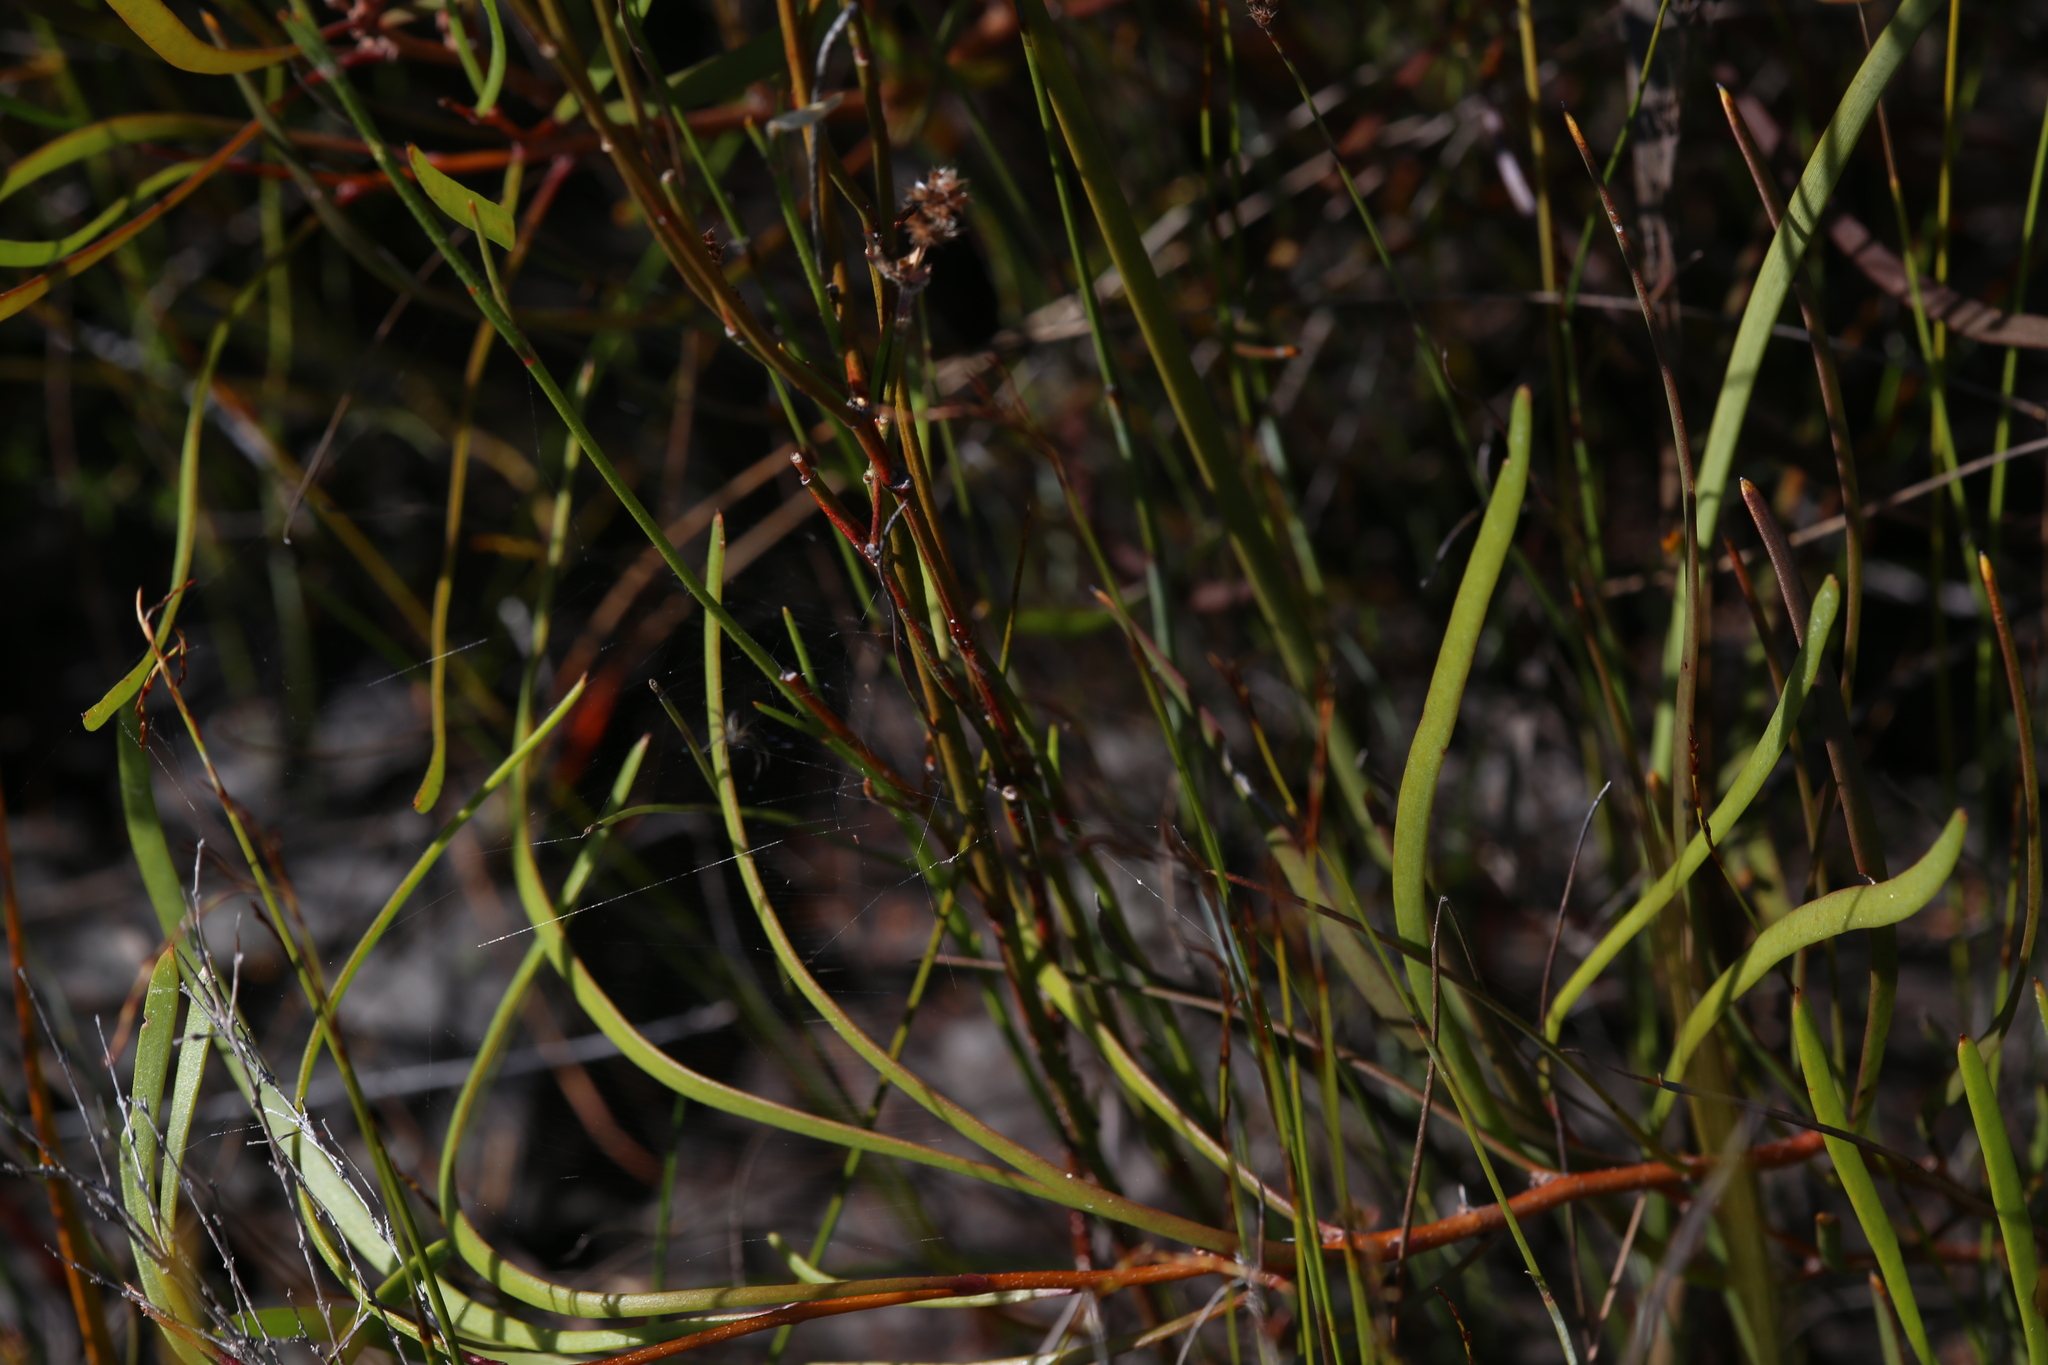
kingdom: Plantae
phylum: Tracheophyta
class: Magnoliopsida
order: Sapindales
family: Rutaceae
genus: Boronia
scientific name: Boronia juncea
